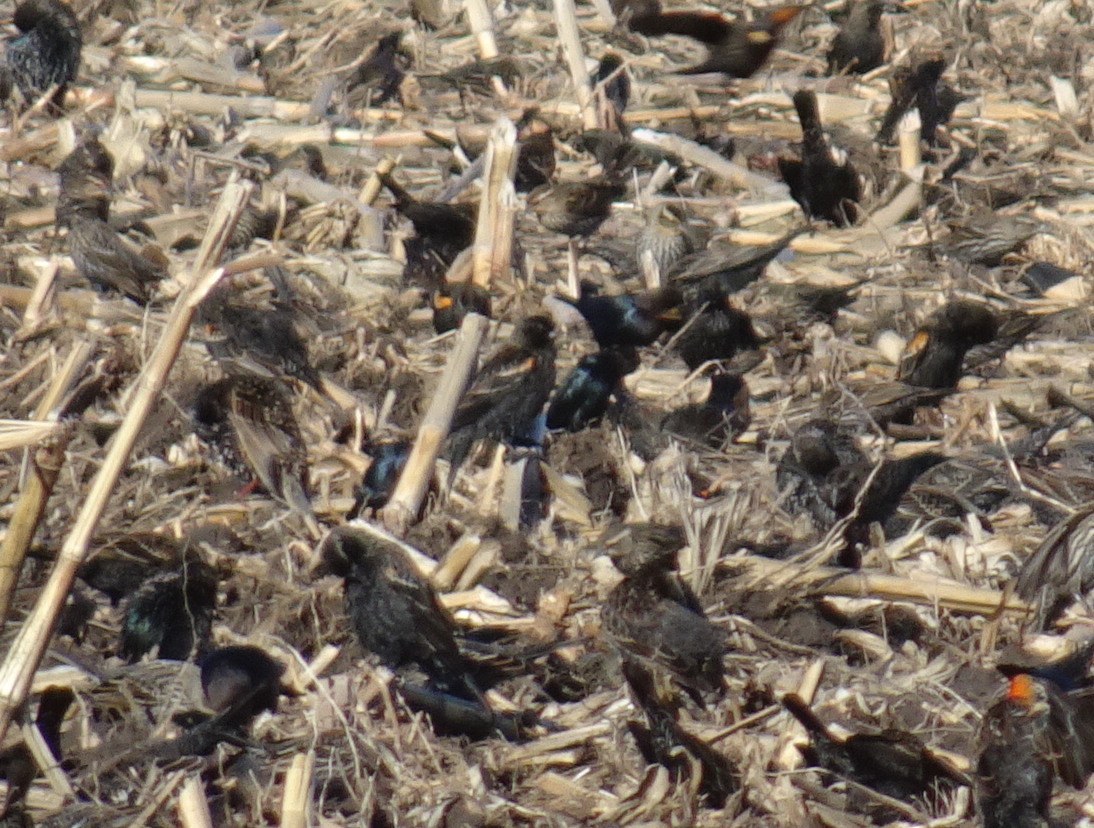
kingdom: Animalia
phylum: Chordata
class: Aves
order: Passeriformes
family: Icteridae
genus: Molothrus
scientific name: Molothrus ater
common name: Brown-headed cowbird
